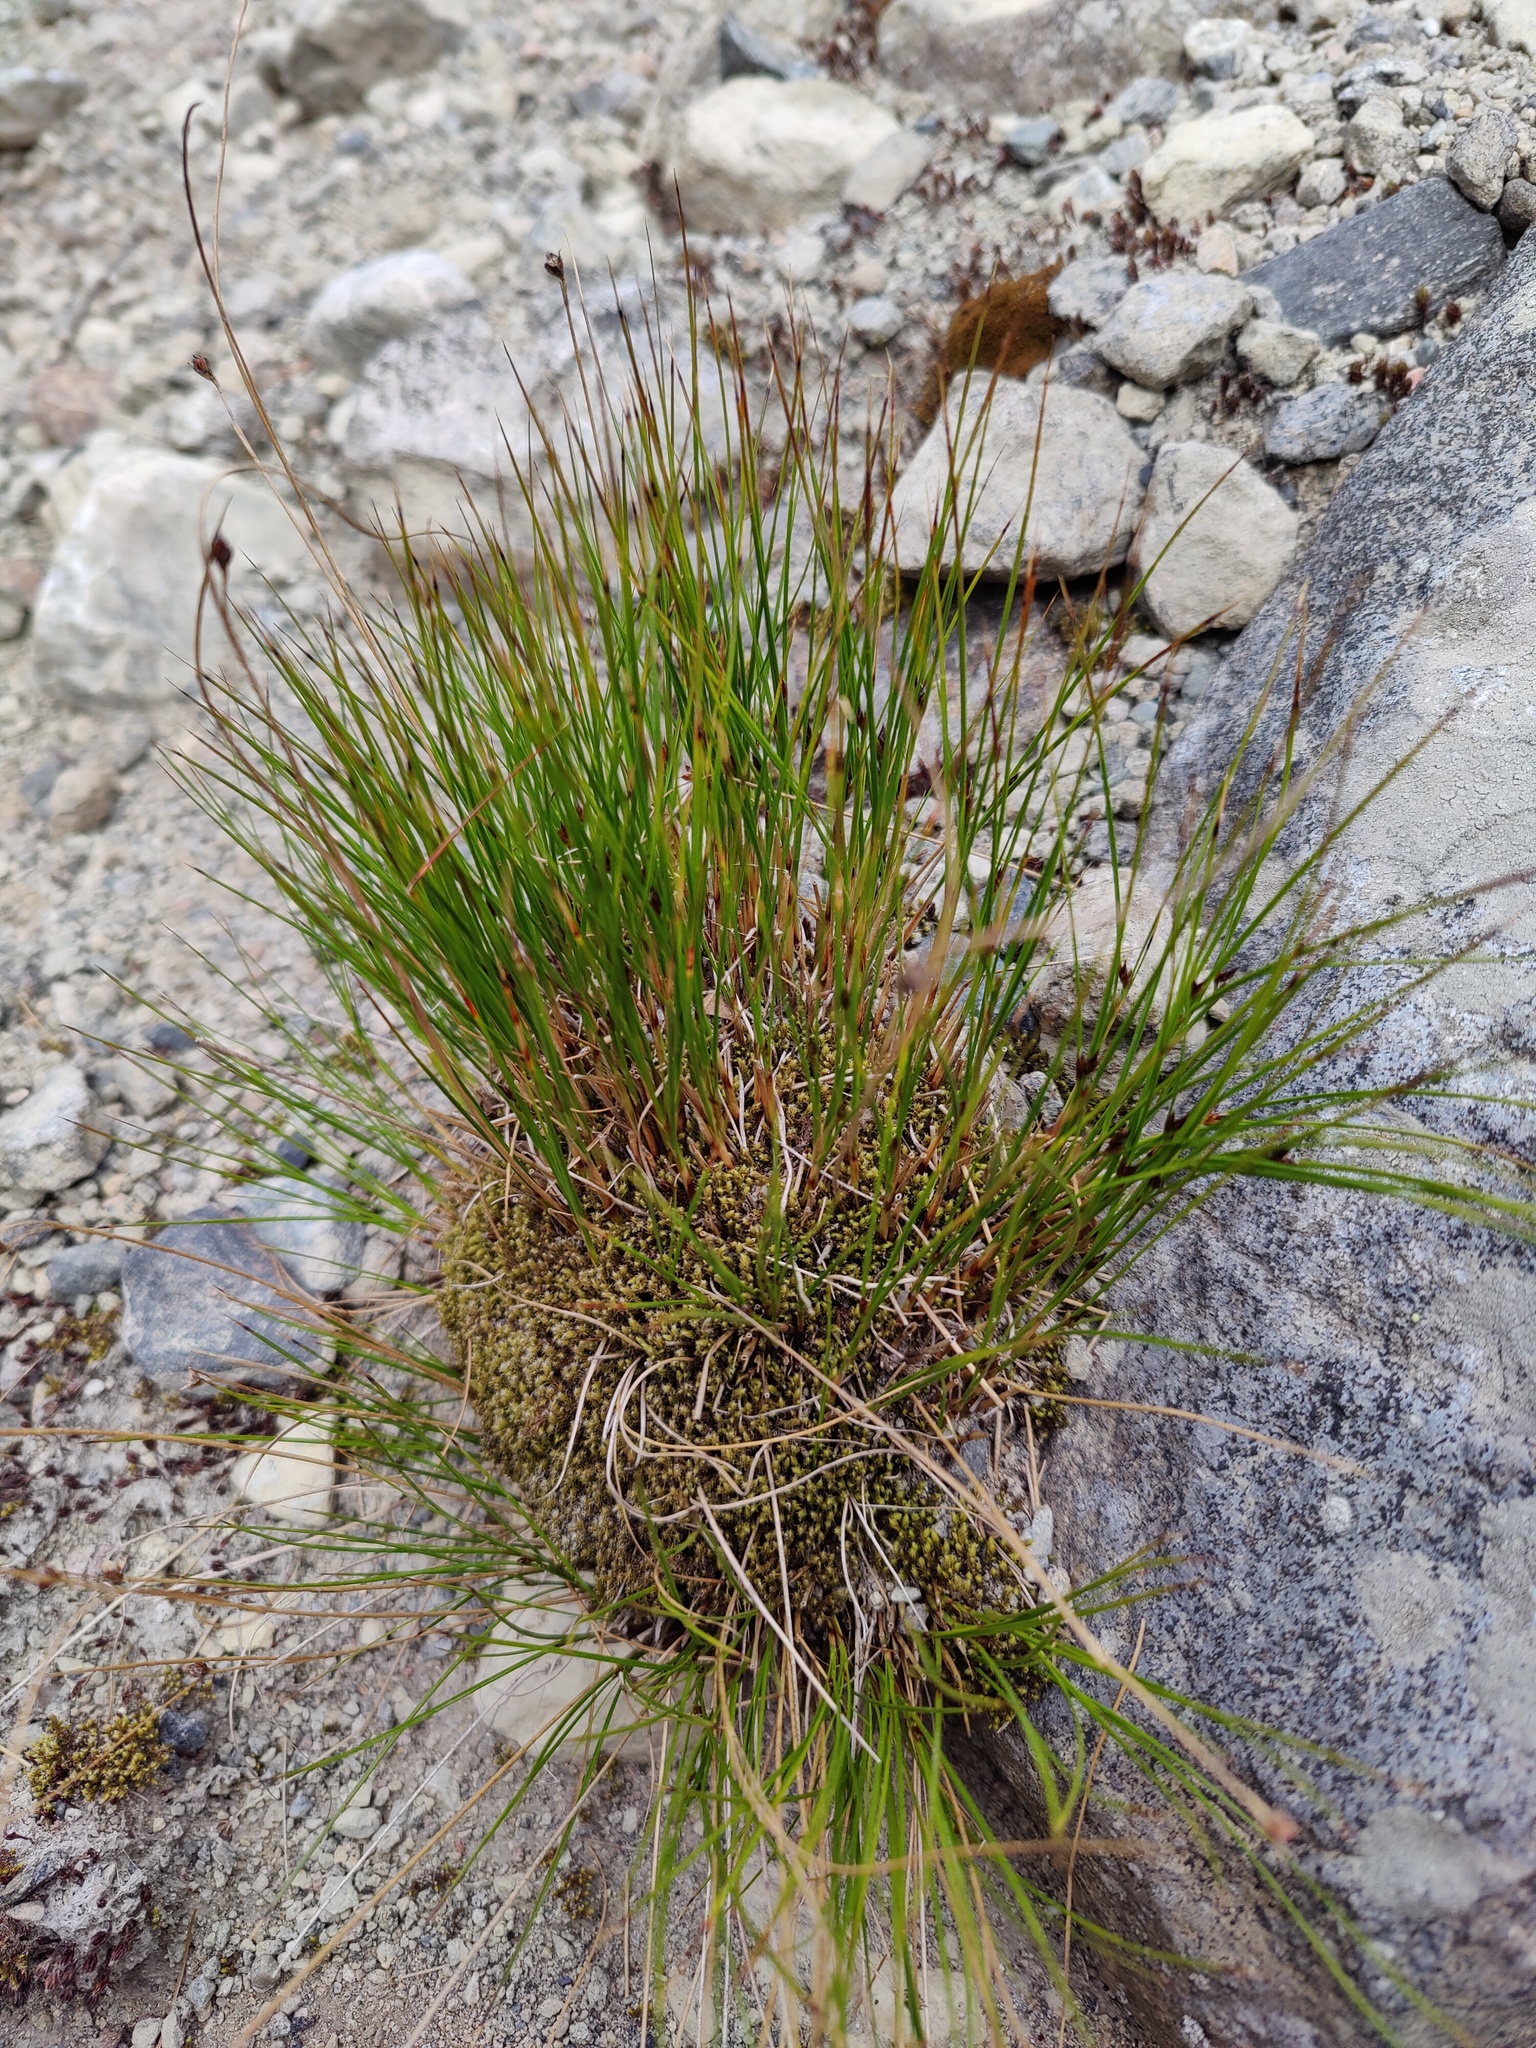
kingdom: Plantae
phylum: Tracheophyta
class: Liliopsida
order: Poales
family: Juncaceae
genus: Oreojuncus
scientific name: Oreojuncus trifidus
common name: Highland rush
